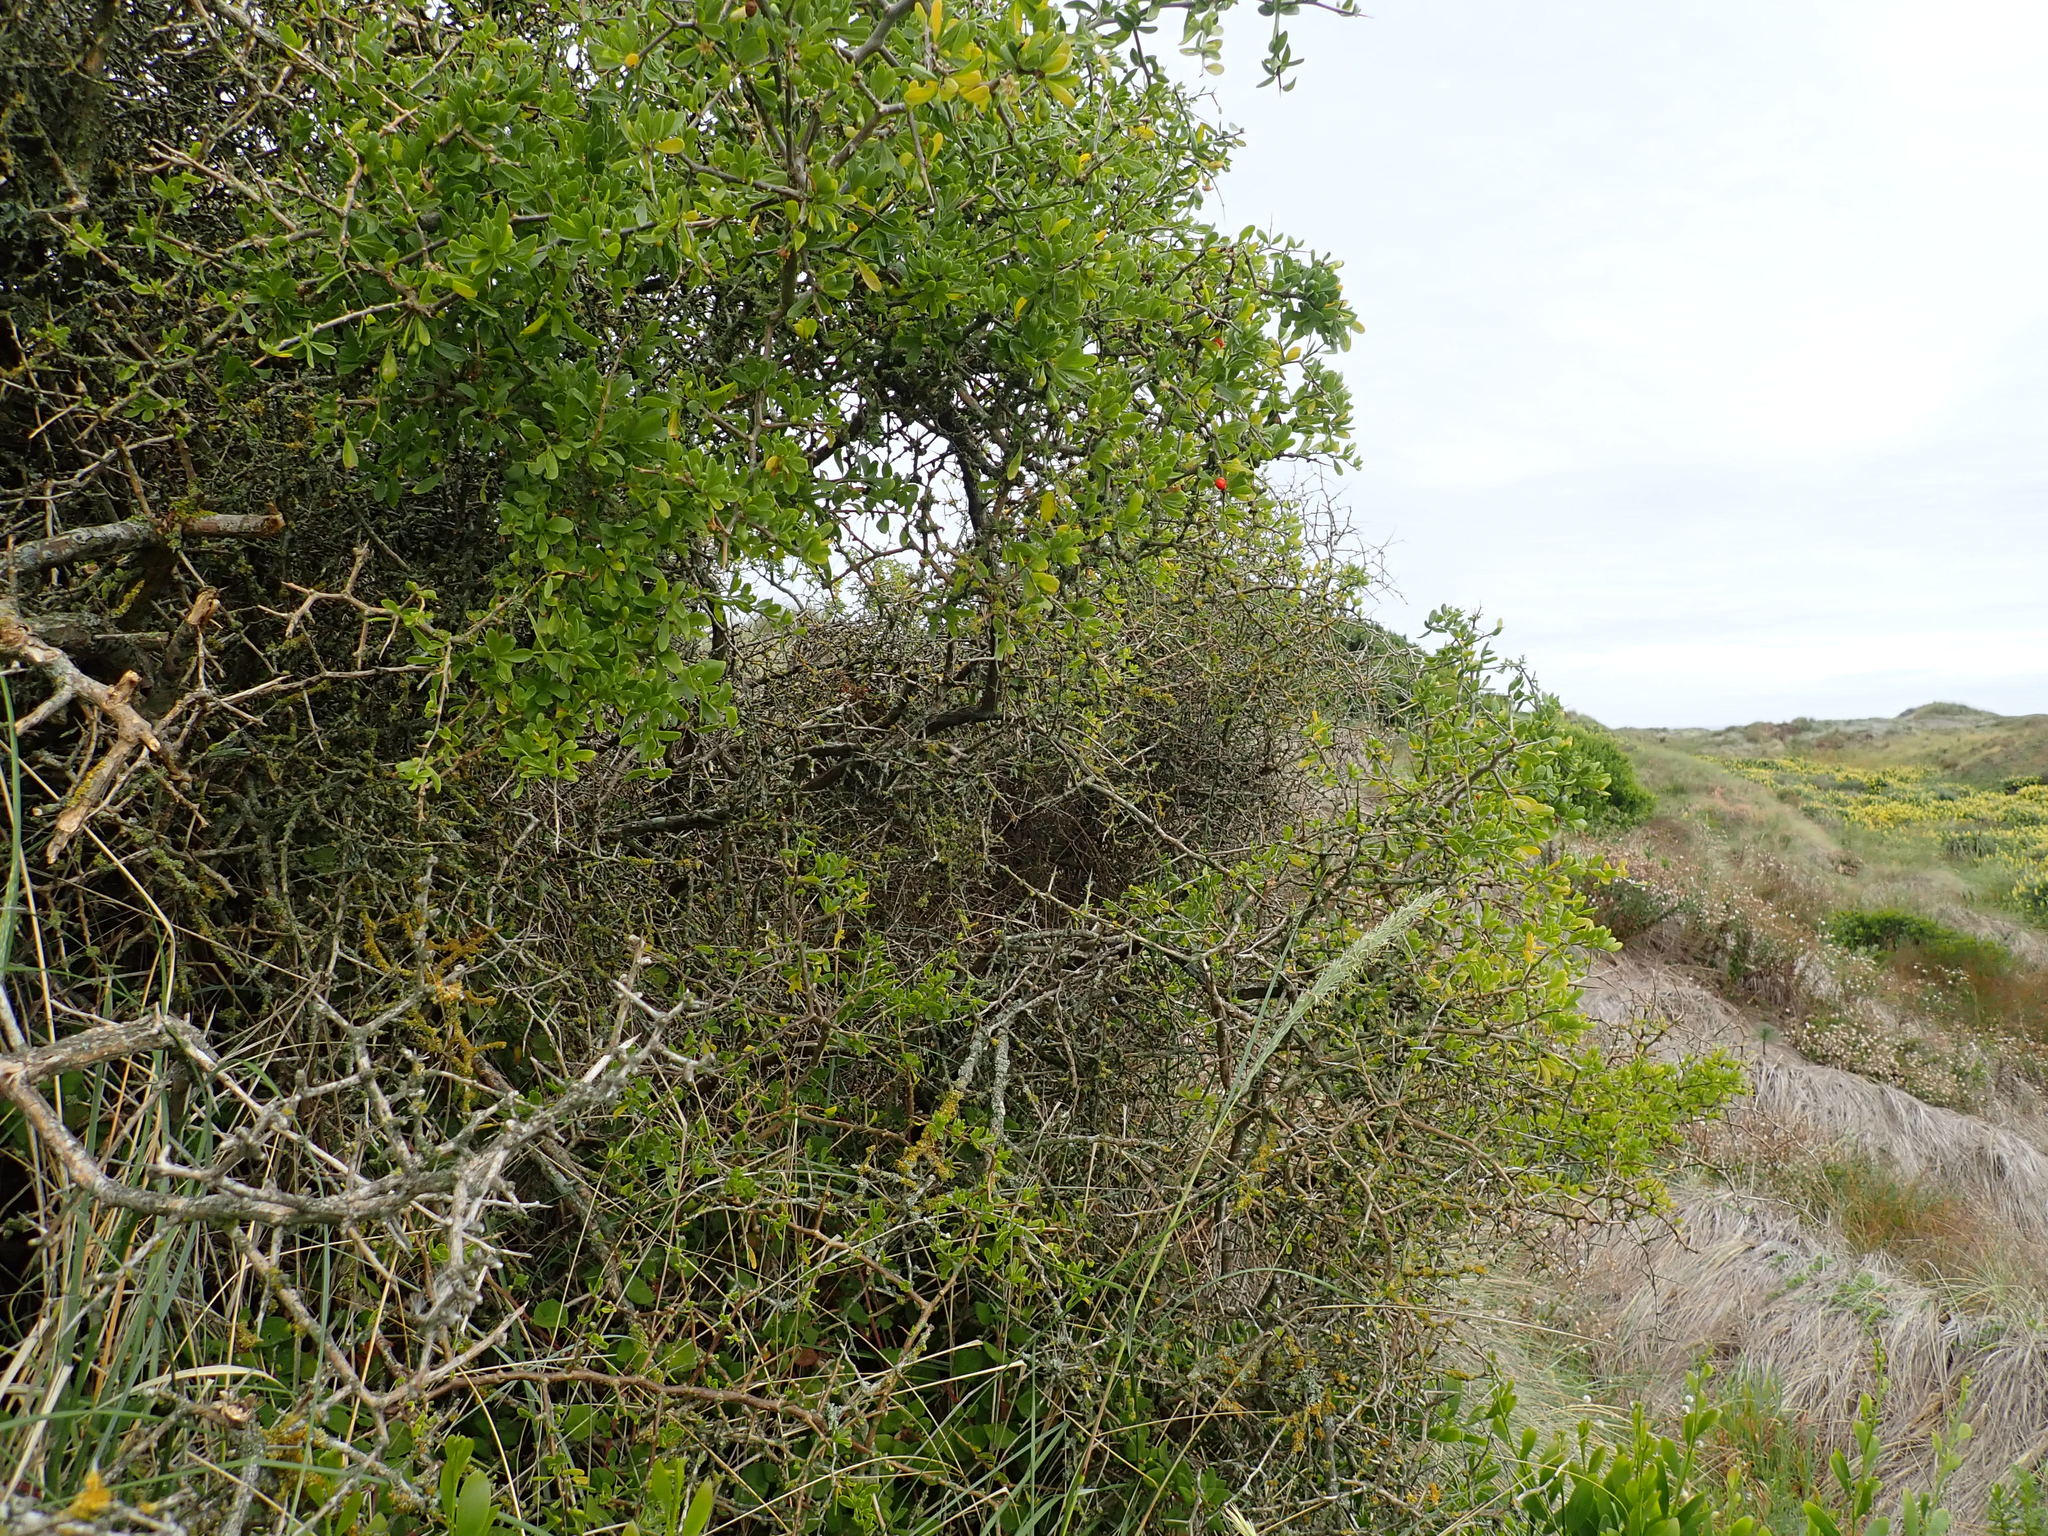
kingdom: Plantae
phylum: Tracheophyta
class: Magnoliopsida
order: Solanales
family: Solanaceae
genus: Lycium
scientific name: Lycium ferocissimum
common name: African boxthorn
